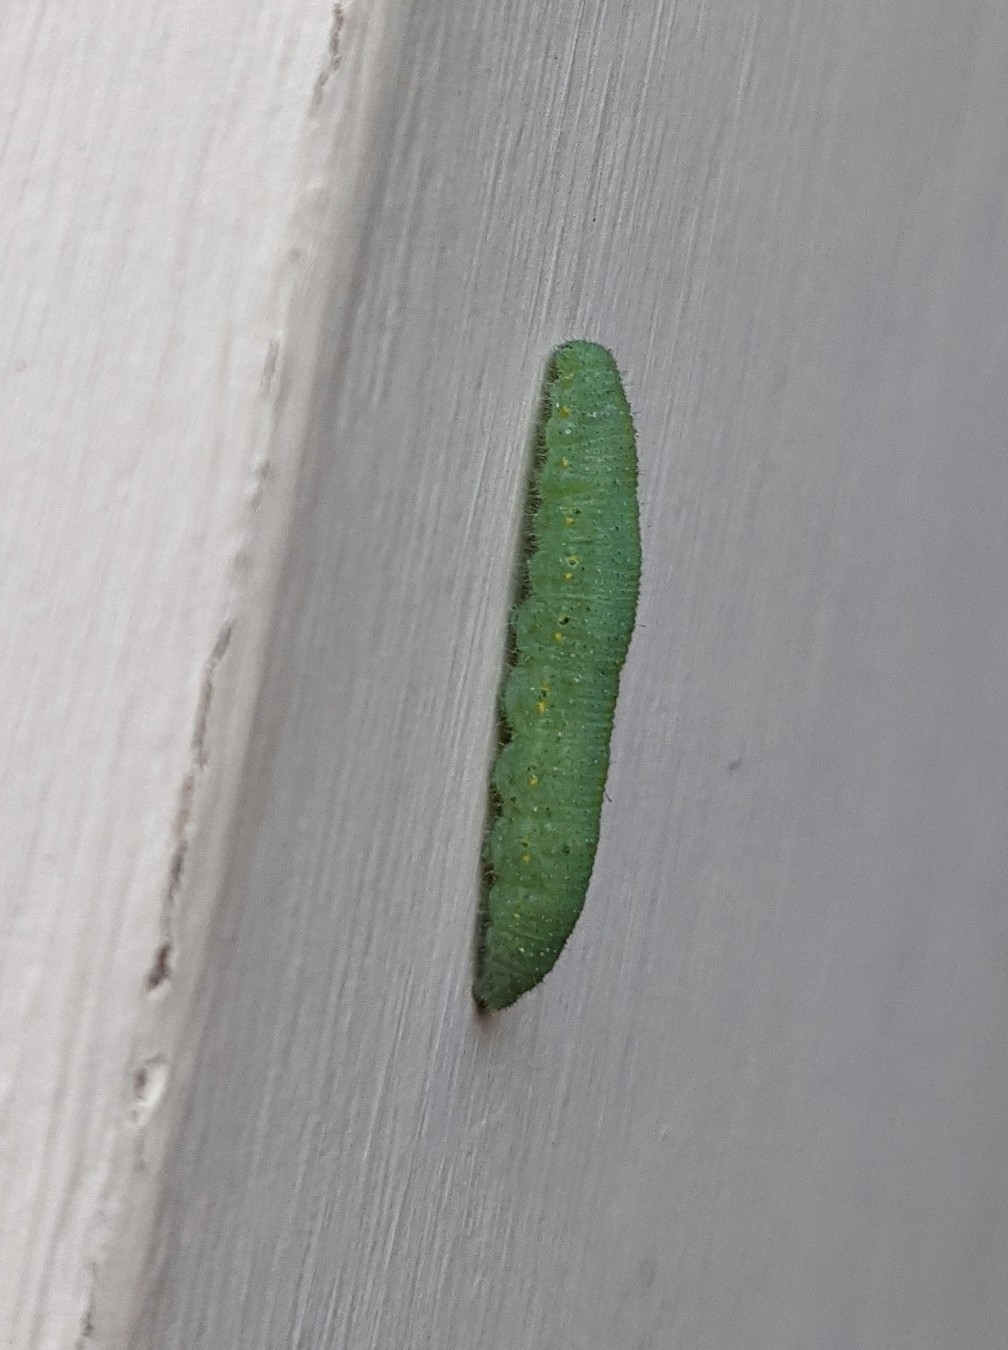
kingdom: Animalia
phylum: Arthropoda
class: Insecta
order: Lepidoptera
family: Pieridae
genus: Pieris
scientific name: Pieris rapae
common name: Small white
